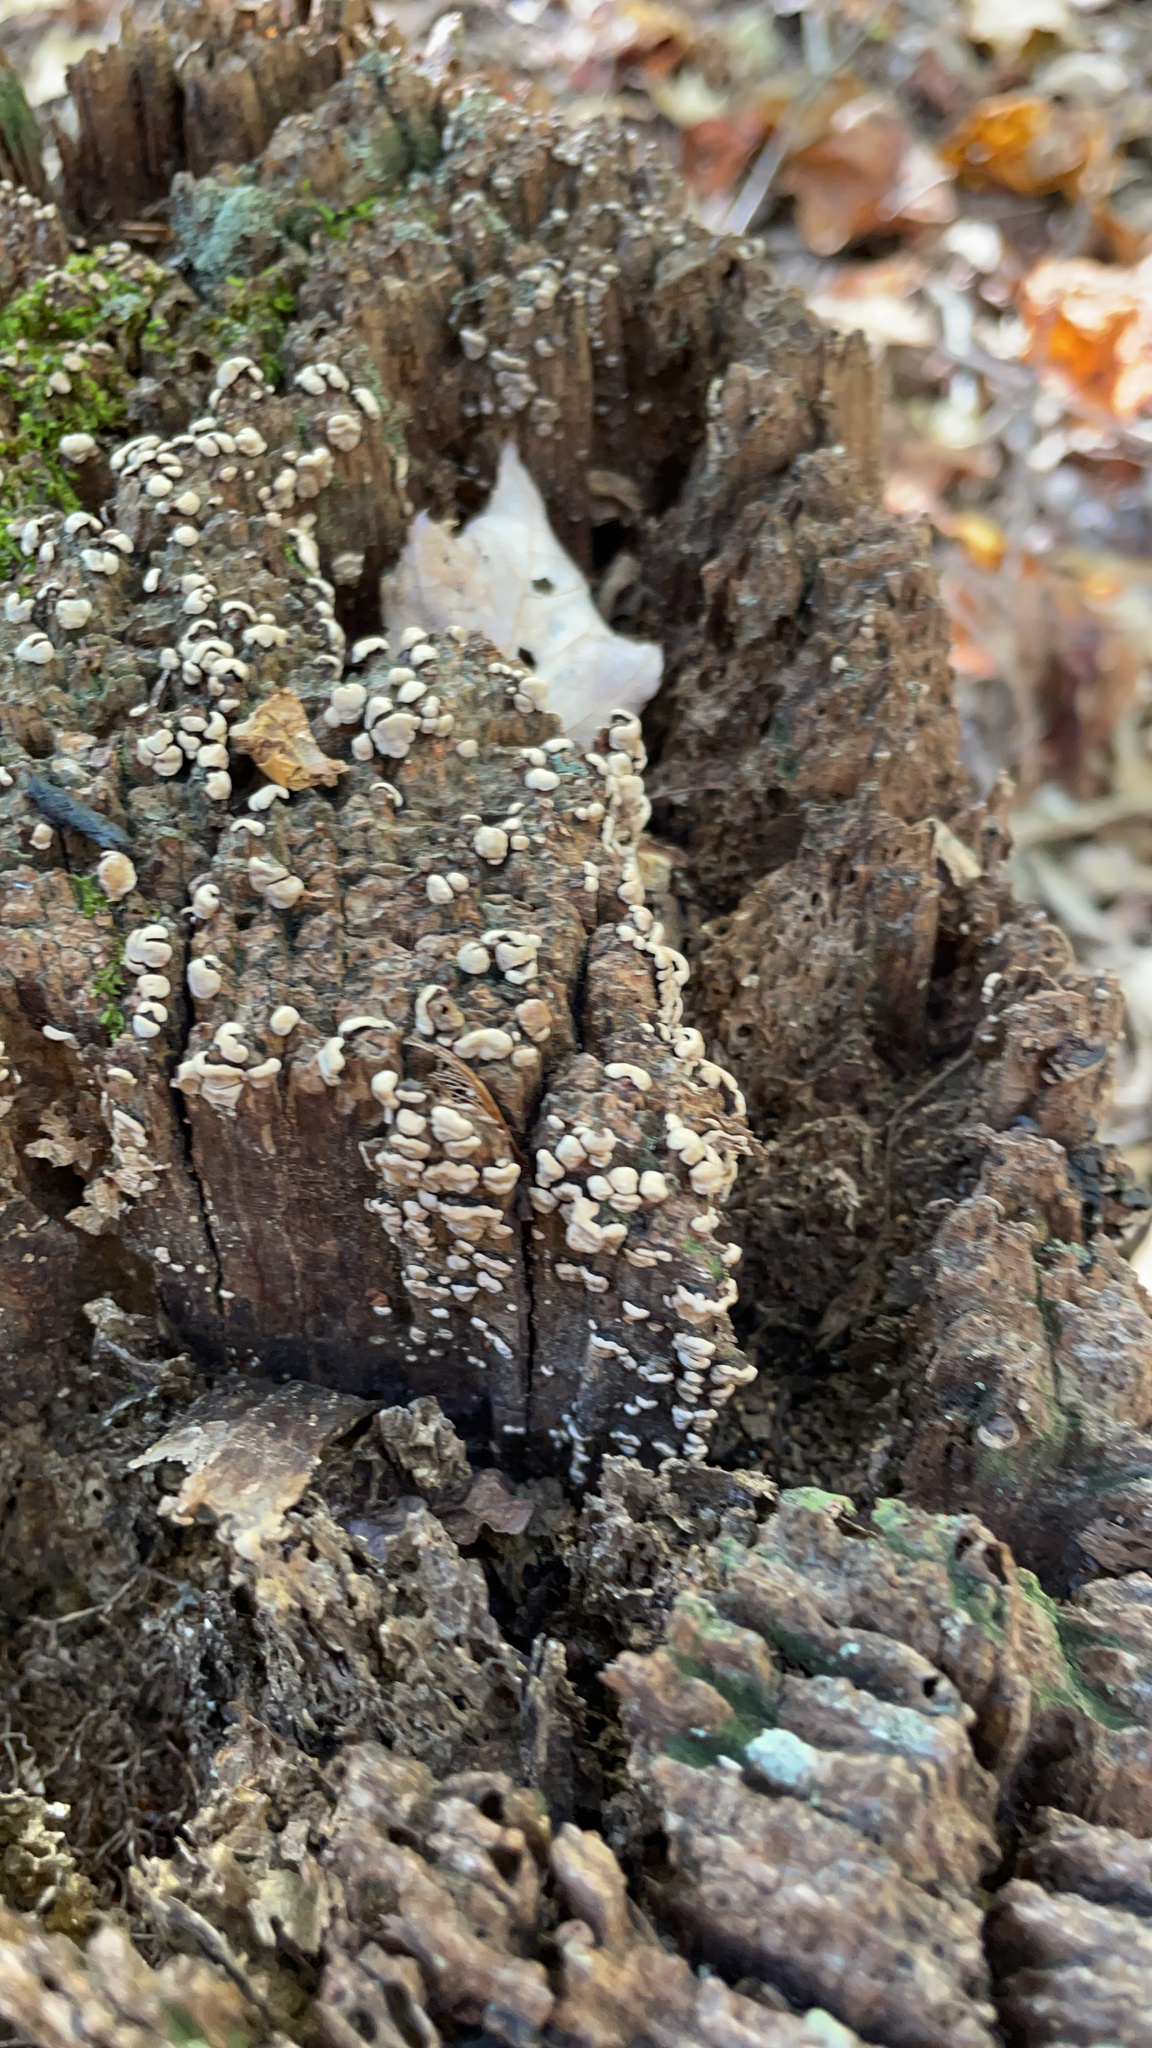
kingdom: Fungi
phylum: Basidiomycota
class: Agaricomycetes
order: Russulales
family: Stereaceae
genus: Xylobolus
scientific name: Xylobolus frustulatus
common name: Ceramic parchment
